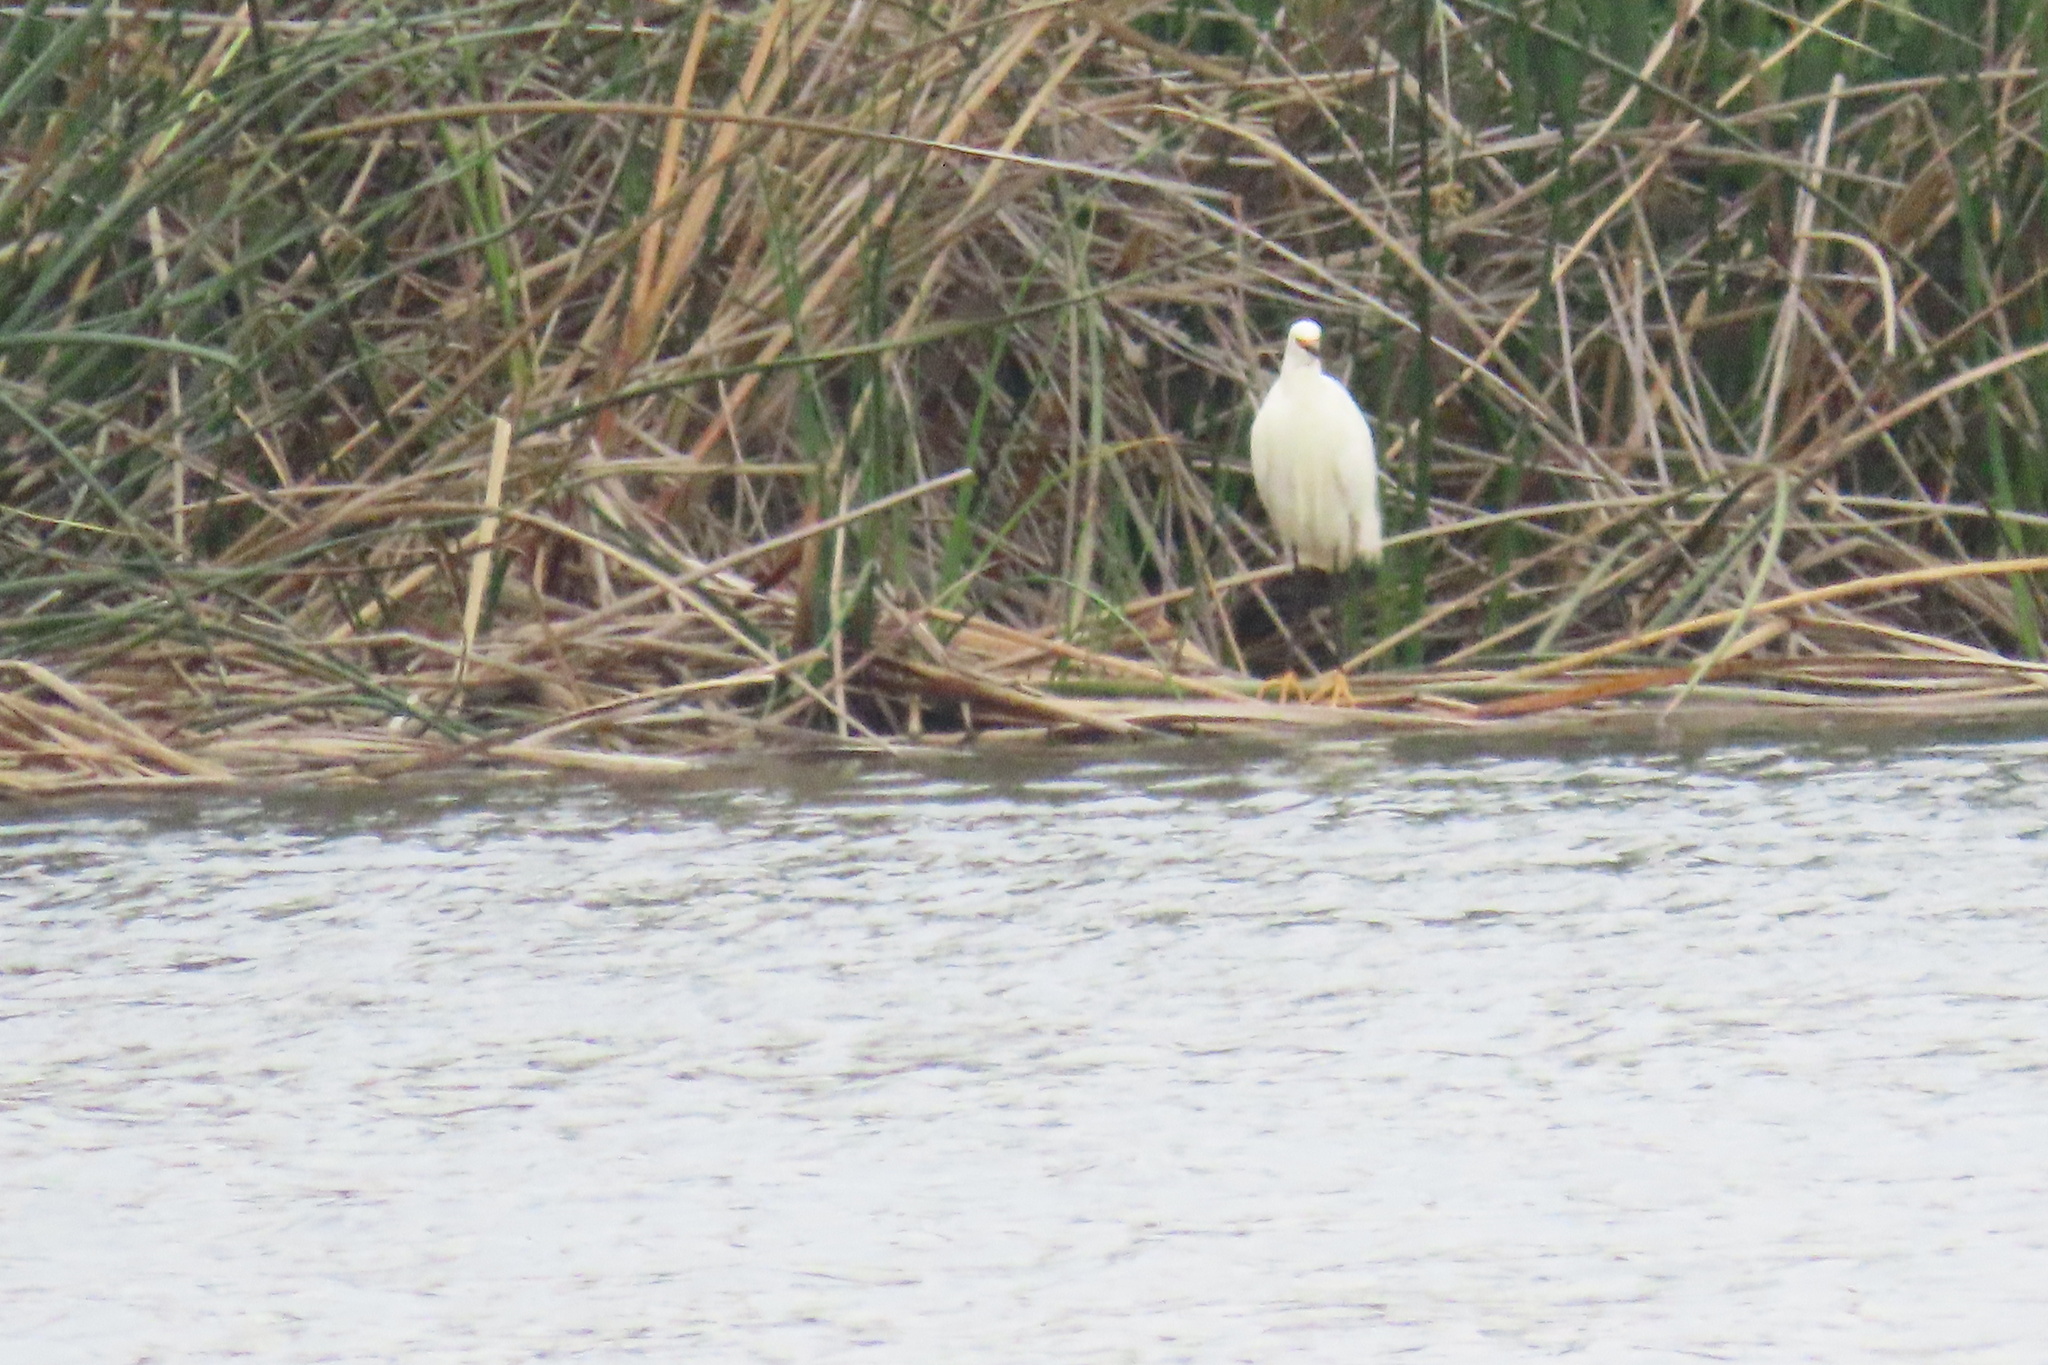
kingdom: Animalia
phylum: Chordata
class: Aves
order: Pelecaniformes
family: Ardeidae
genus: Egretta
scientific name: Egretta thula
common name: Snowy egret
